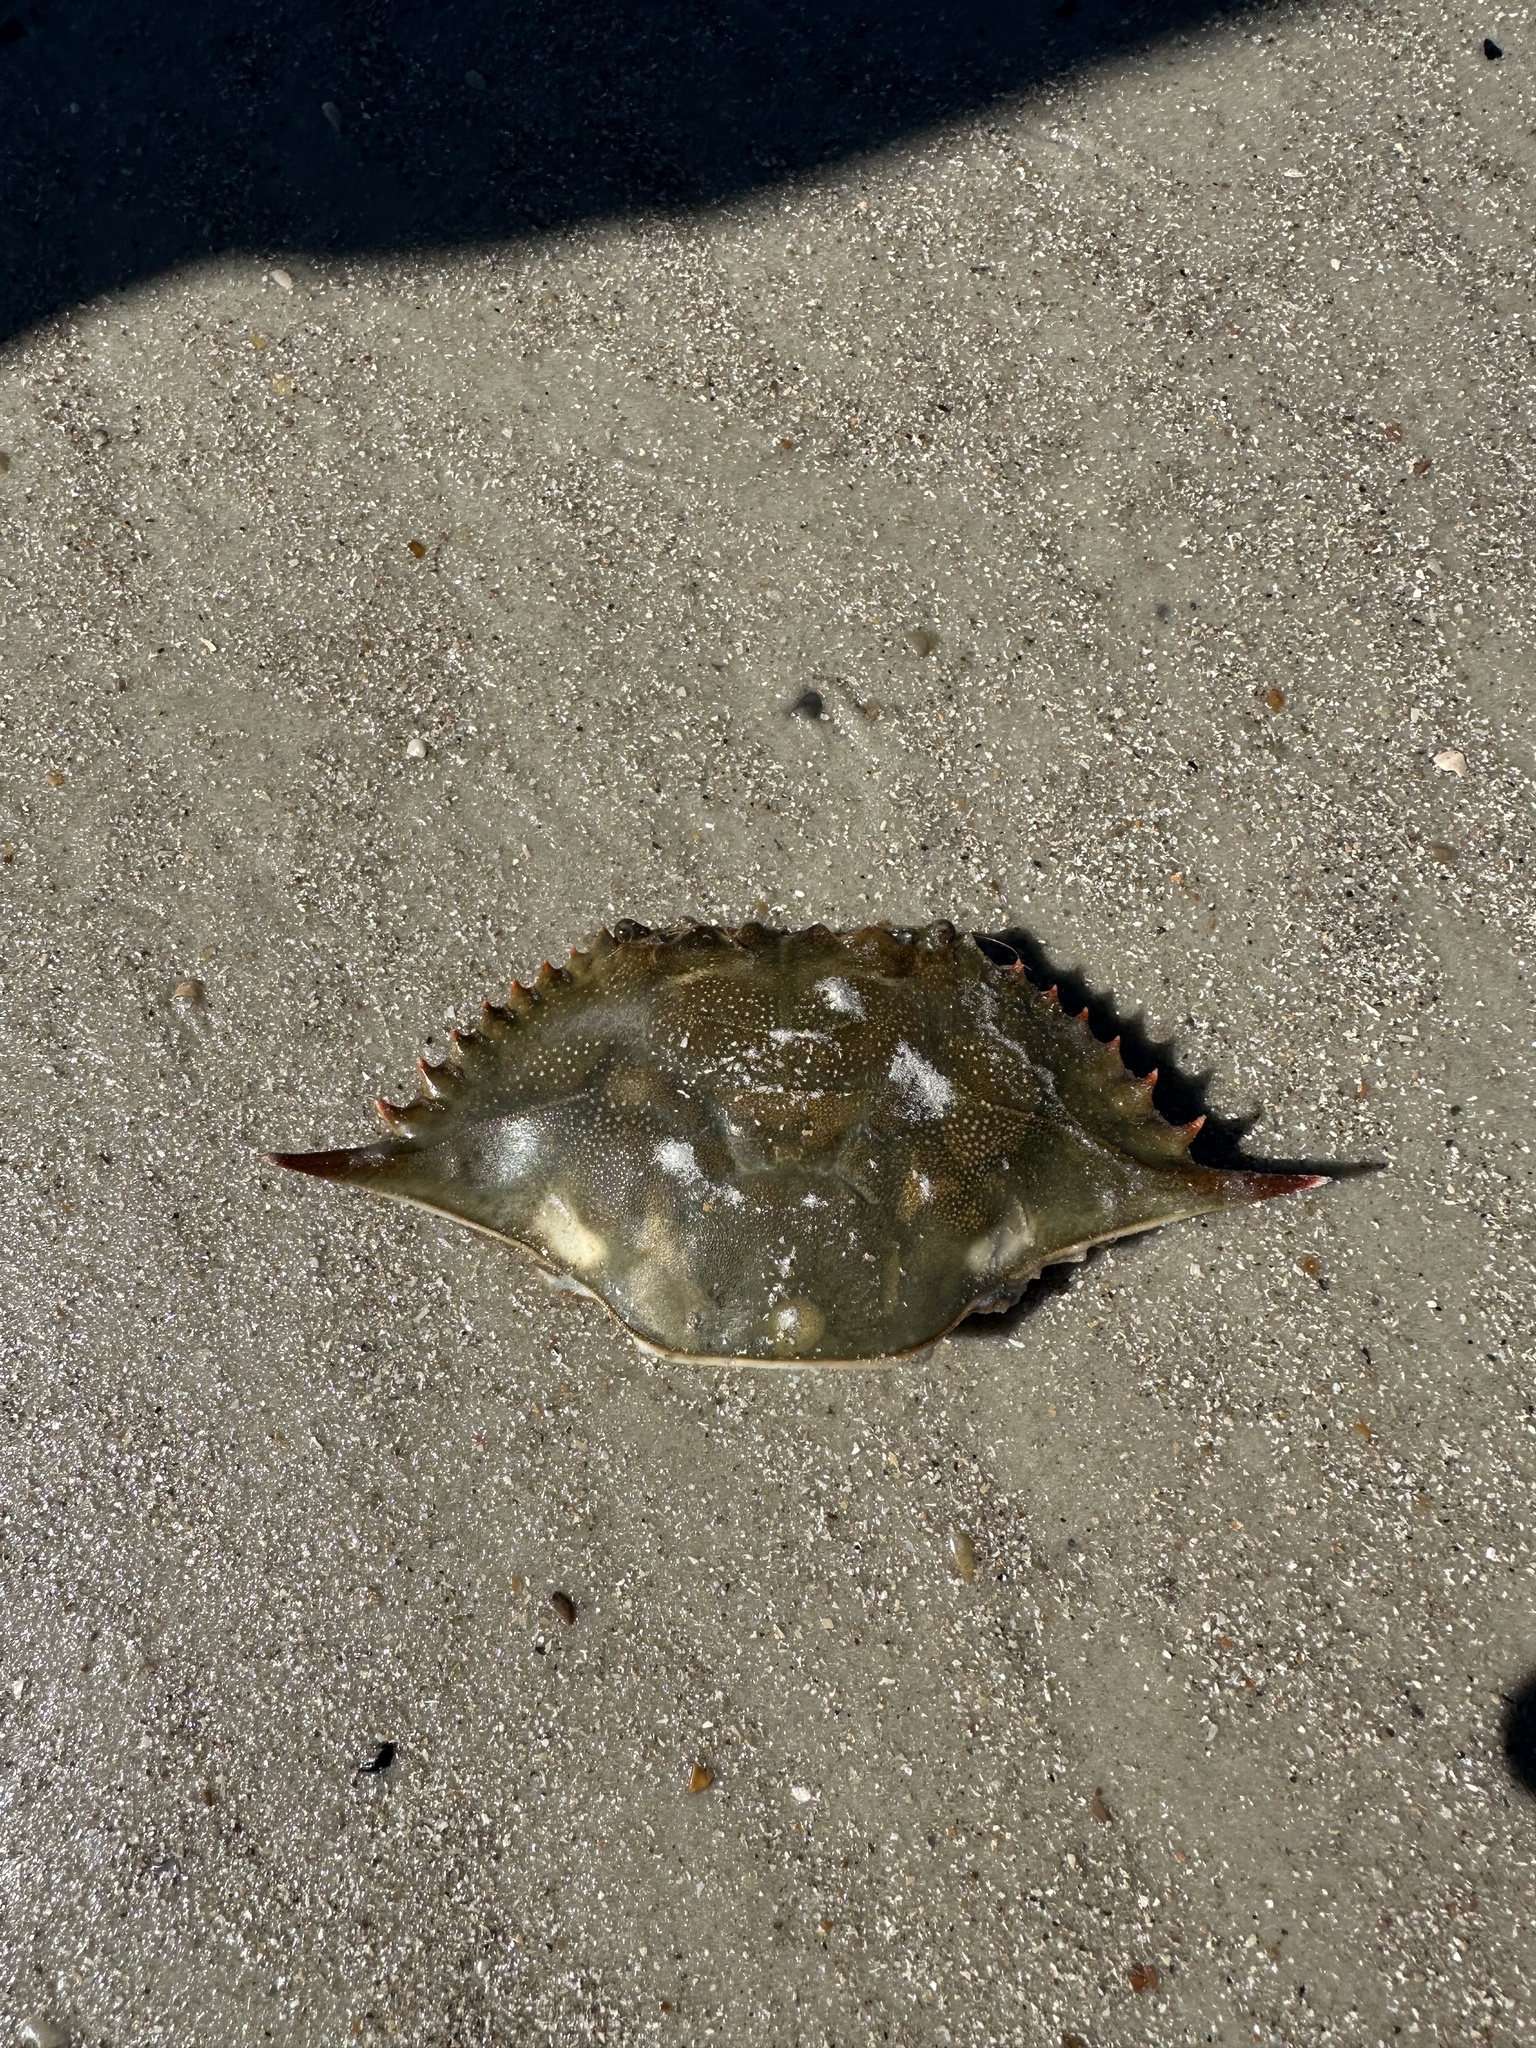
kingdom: Animalia
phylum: Arthropoda
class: Malacostraca
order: Decapoda
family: Portunidae
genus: Callinectes
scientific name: Callinectes sapidus
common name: Blue crab
